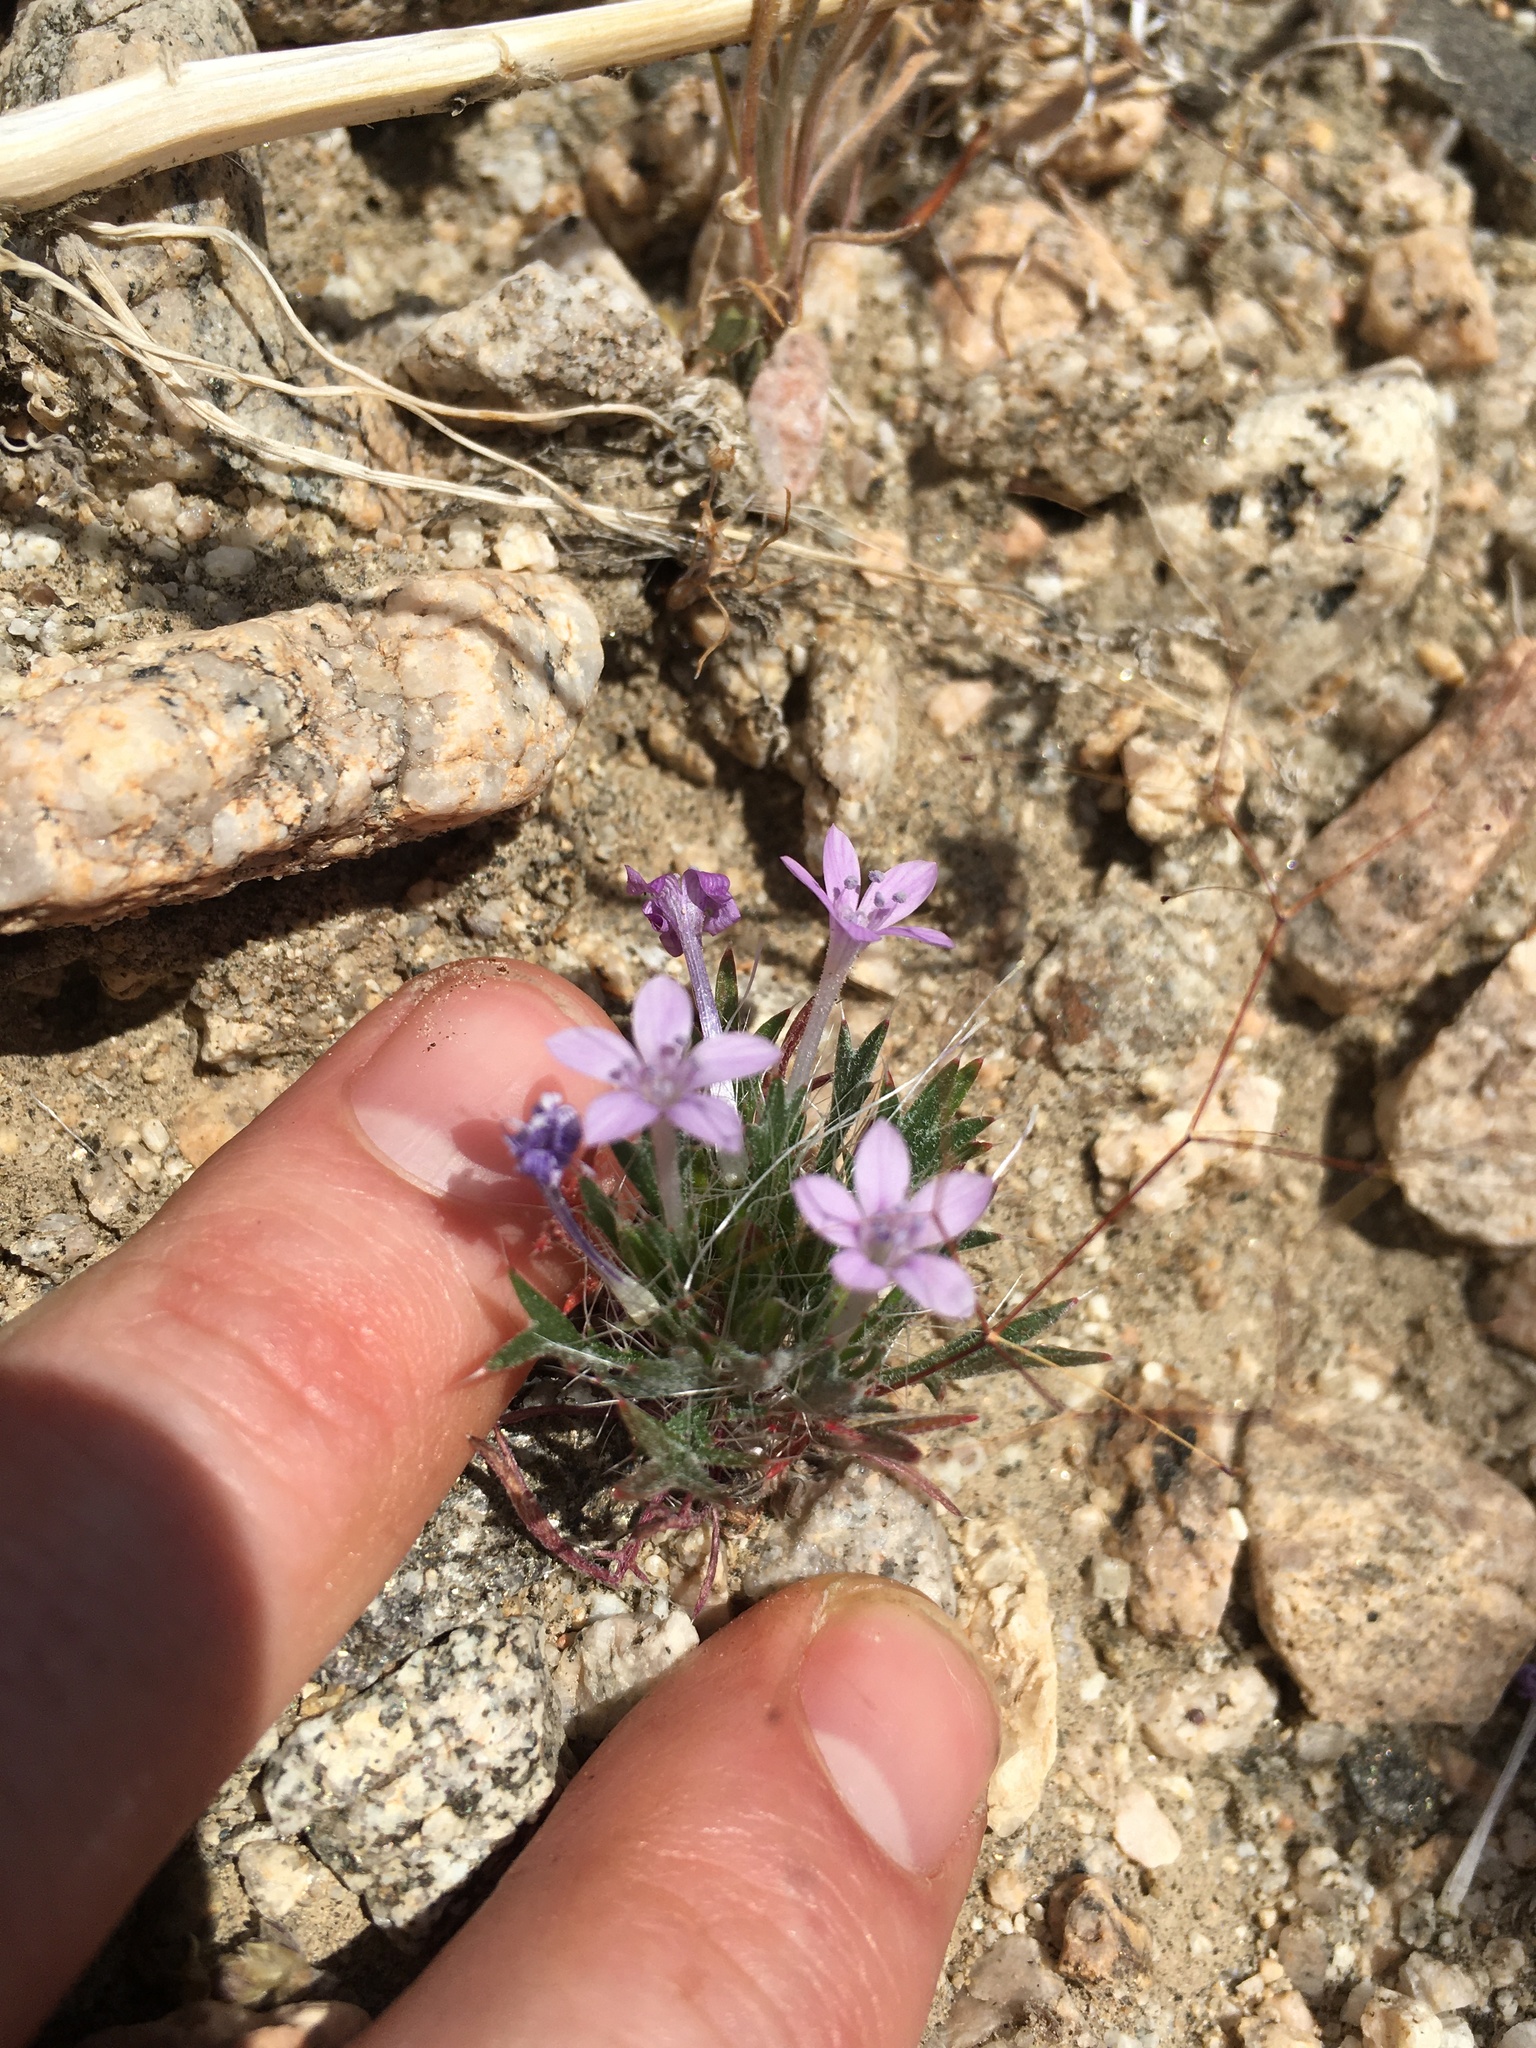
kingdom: Plantae
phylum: Tracheophyta
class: Magnoliopsida
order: Ericales
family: Polemoniaceae
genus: Langloisia
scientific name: Langloisia setosissima
